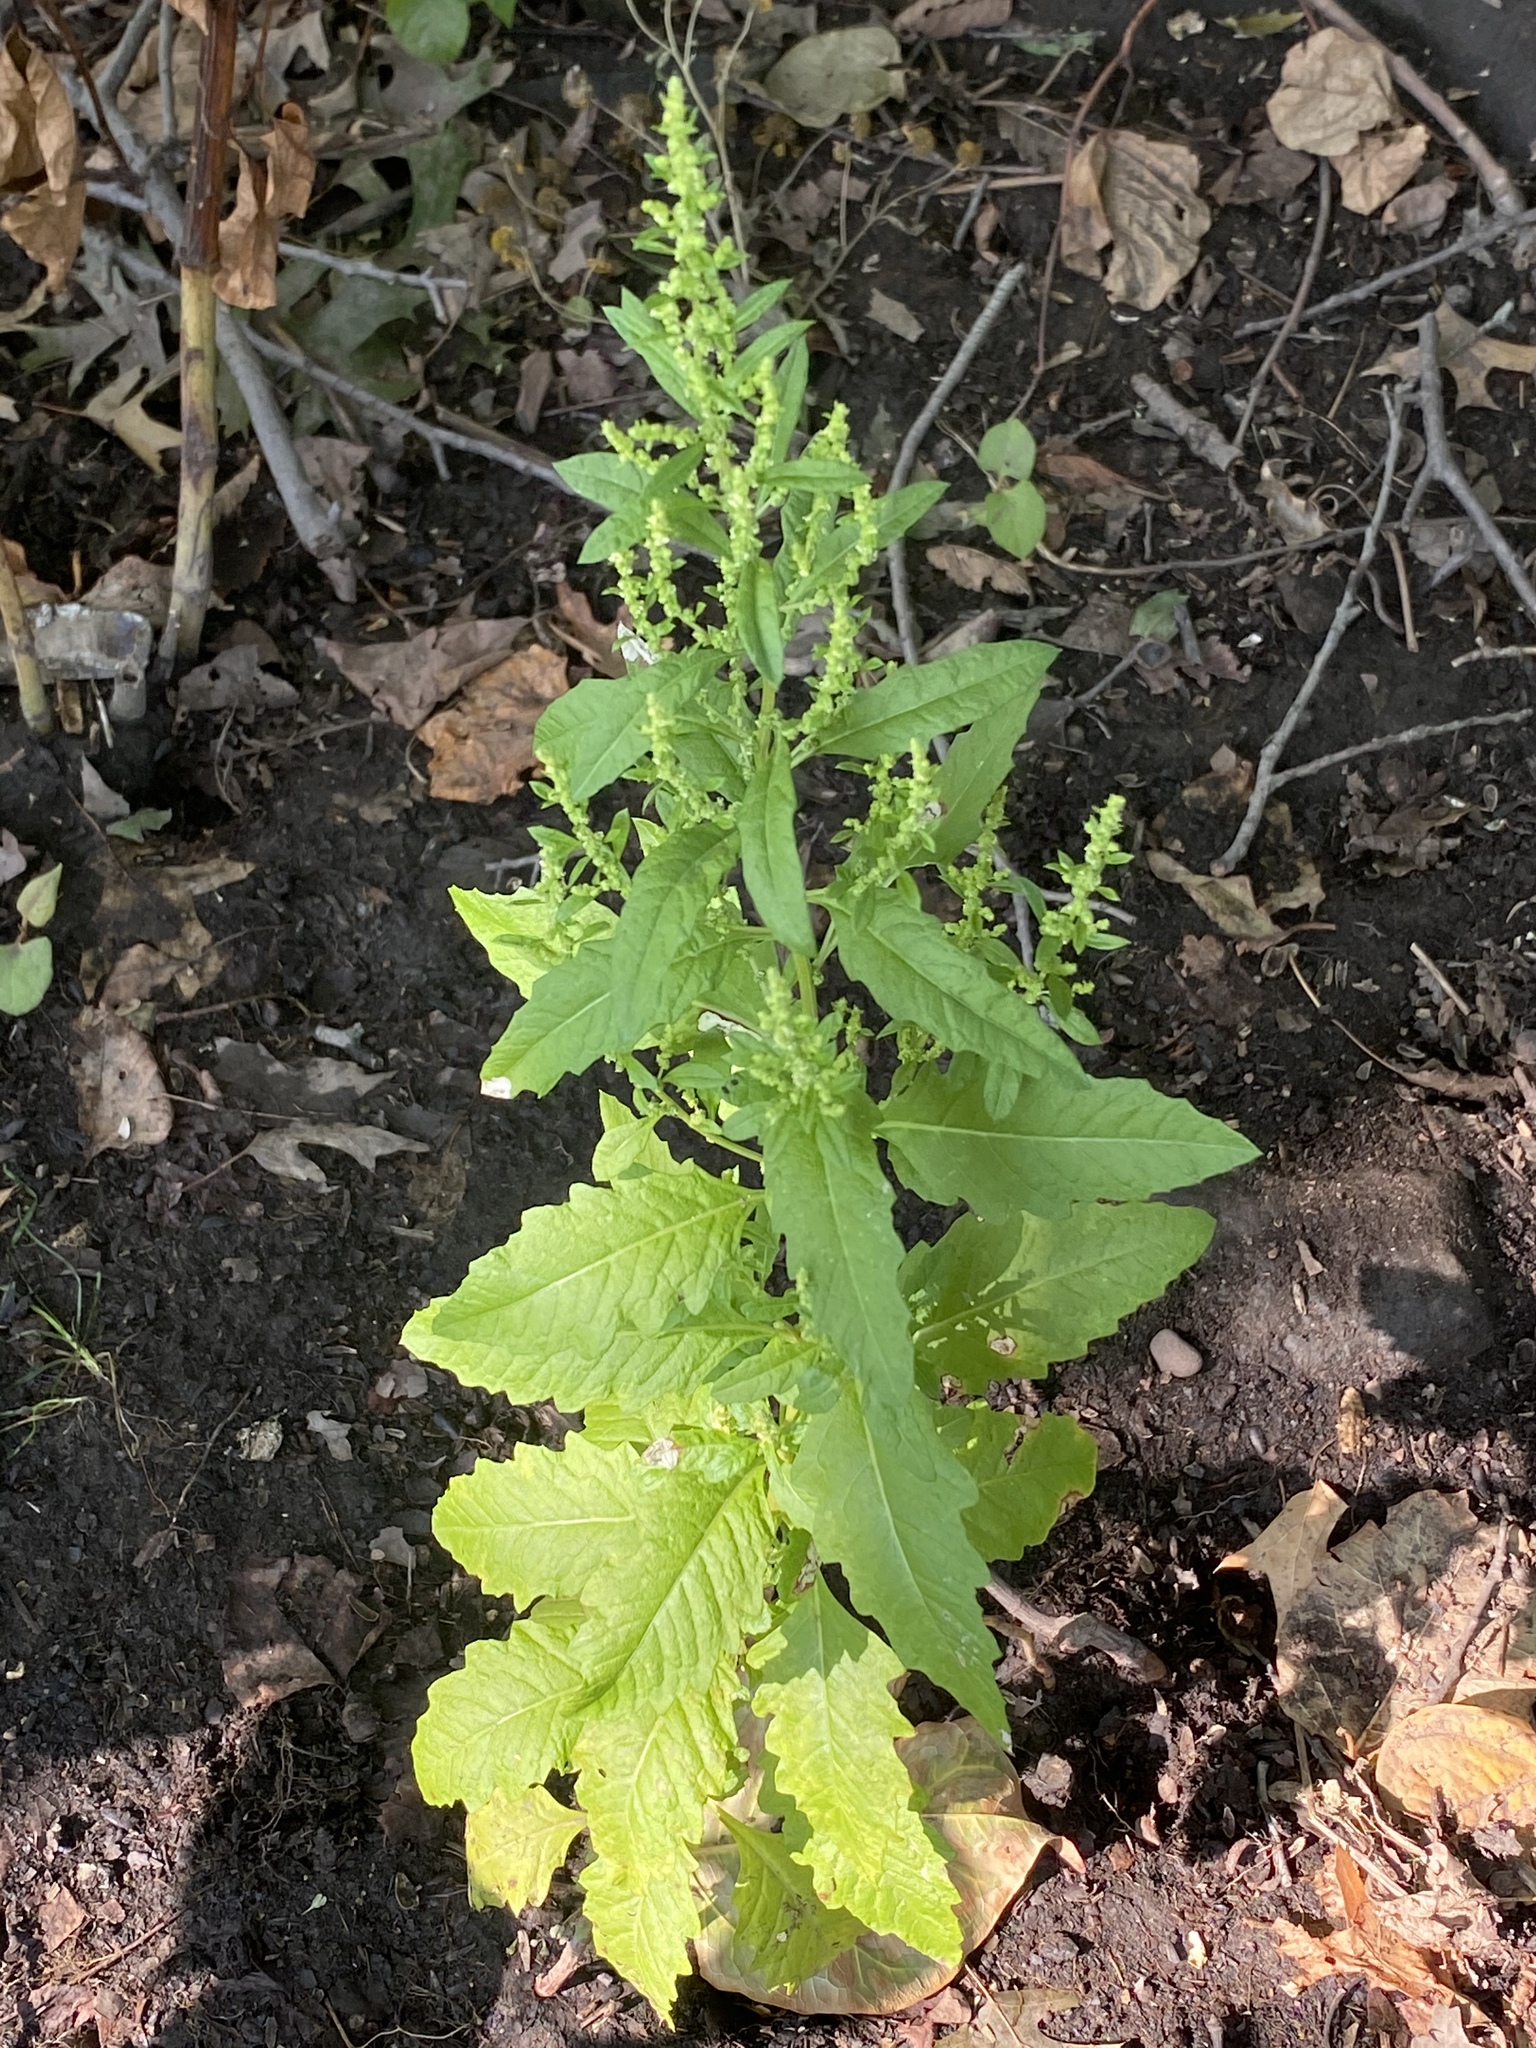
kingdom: Plantae
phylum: Tracheophyta
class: Magnoliopsida
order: Caryophyllales
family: Amaranthaceae
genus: Dysphania
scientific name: Dysphania ambrosioides
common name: Wormseed
